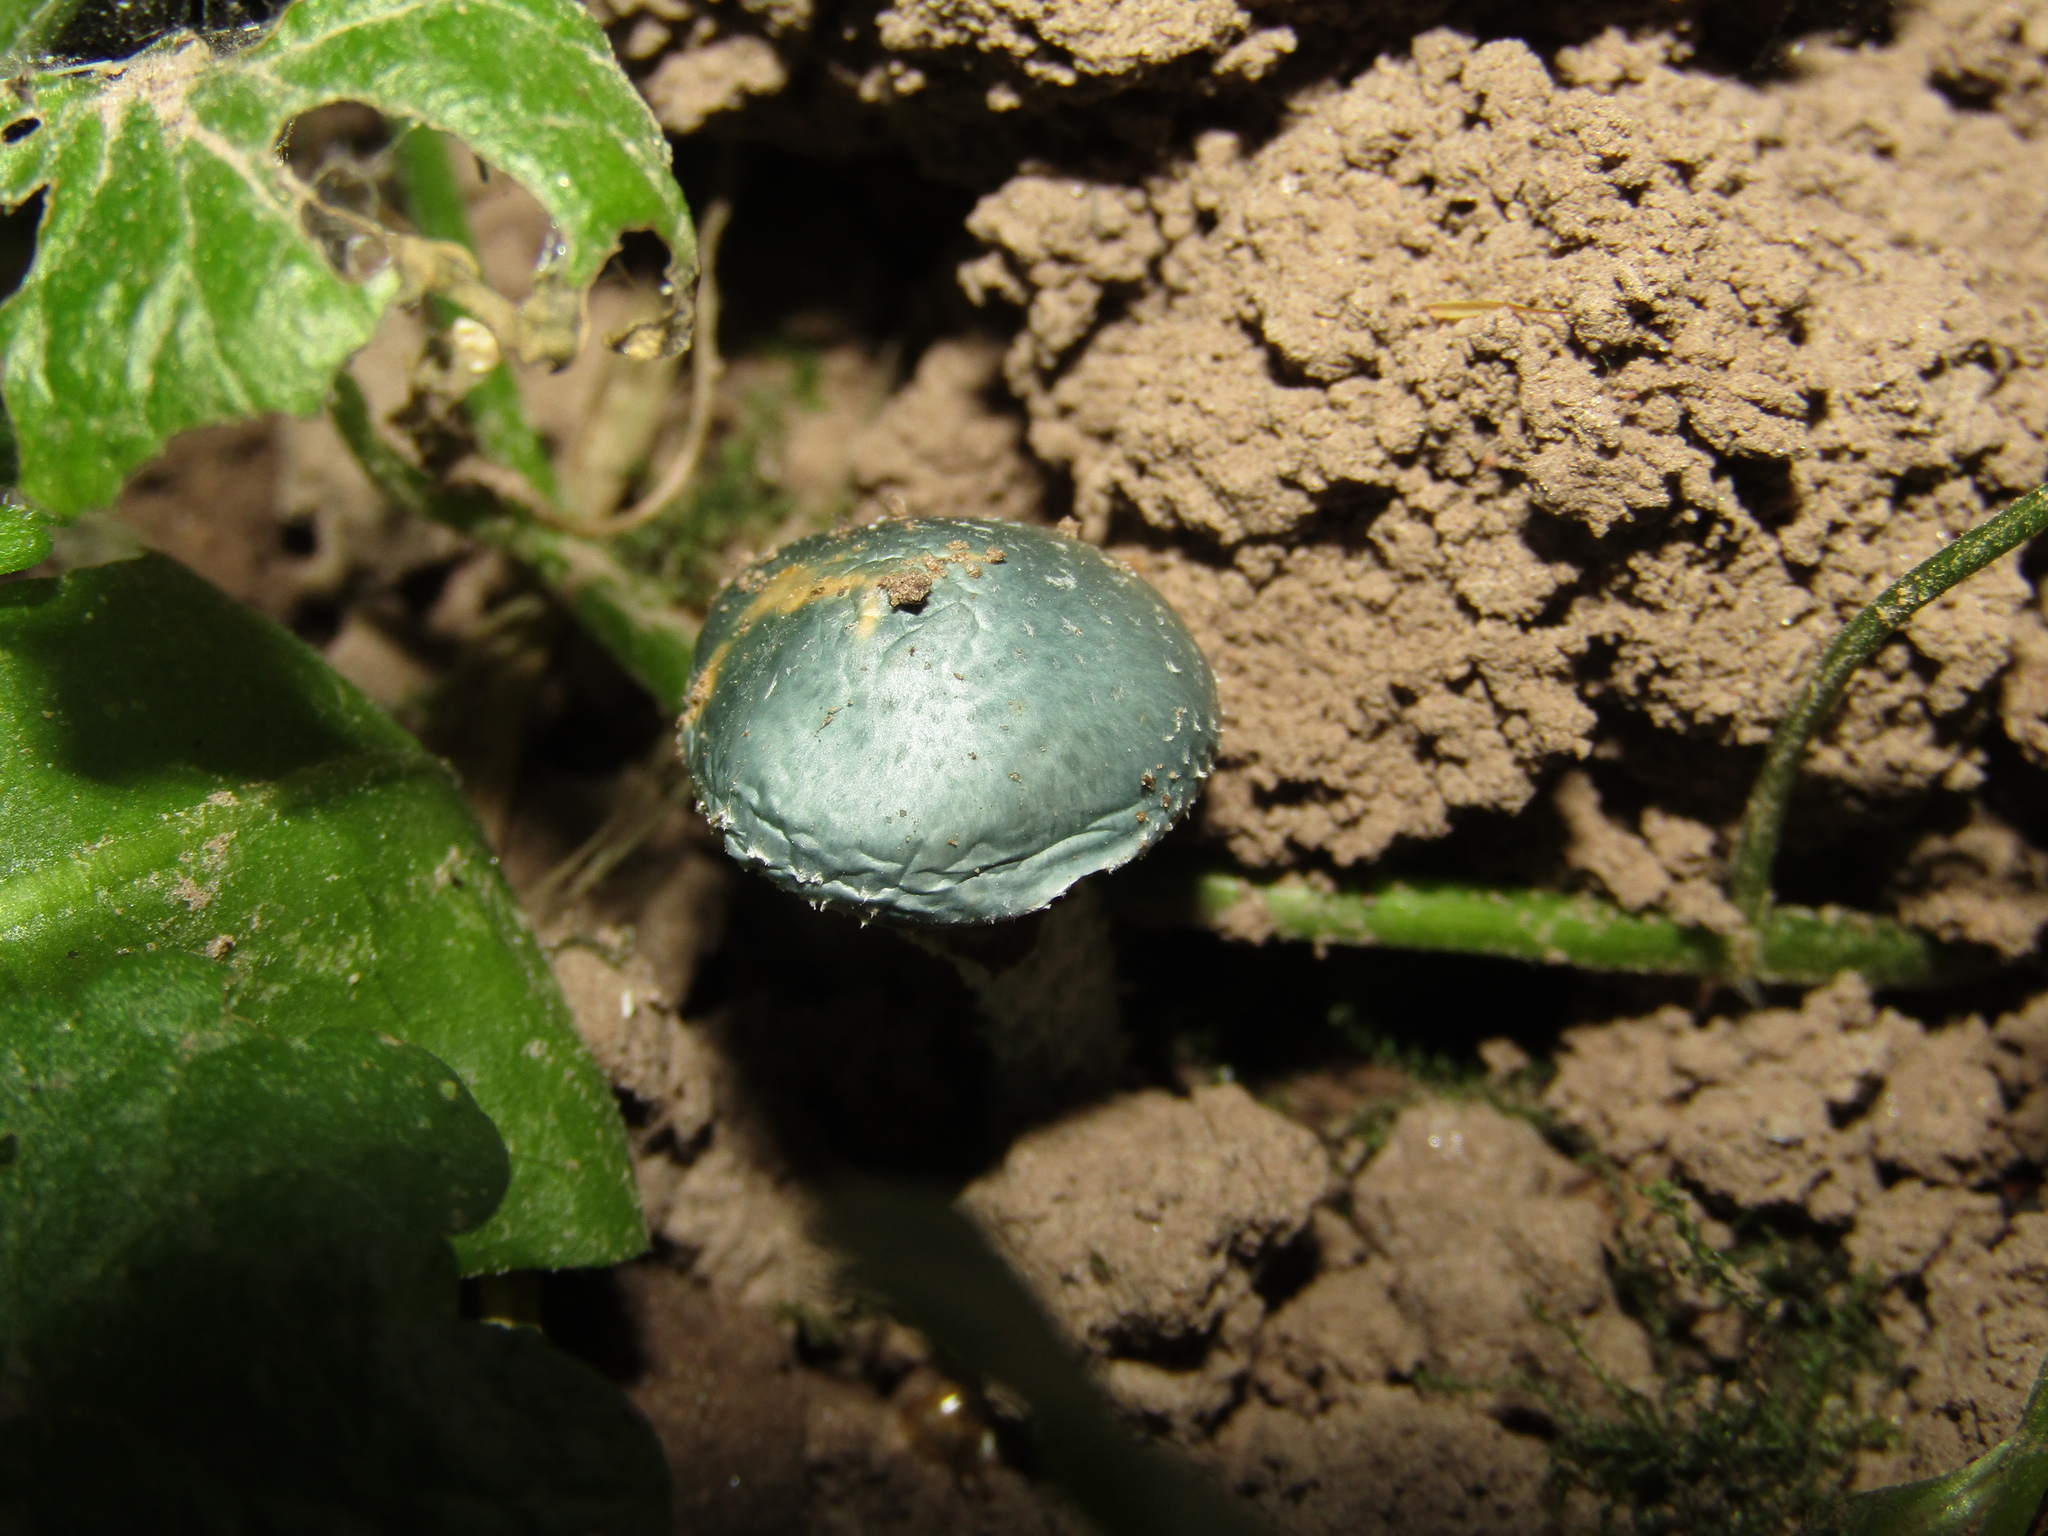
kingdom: Fungi
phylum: Basidiomycota
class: Agaricomycetes
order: Agaricales
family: Strophariaceae
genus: Stropharia
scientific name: Stropharia aeruginosa
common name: Verdigris roundhead
